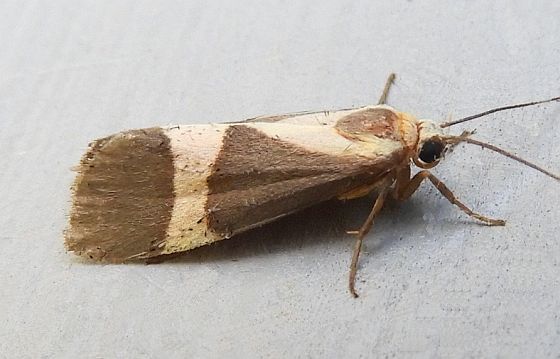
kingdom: Animalia
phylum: Arthropoda
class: Insecta
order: Lepidoptera
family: Erebidae
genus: Cisthene
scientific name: Cisthene tenuifascia
